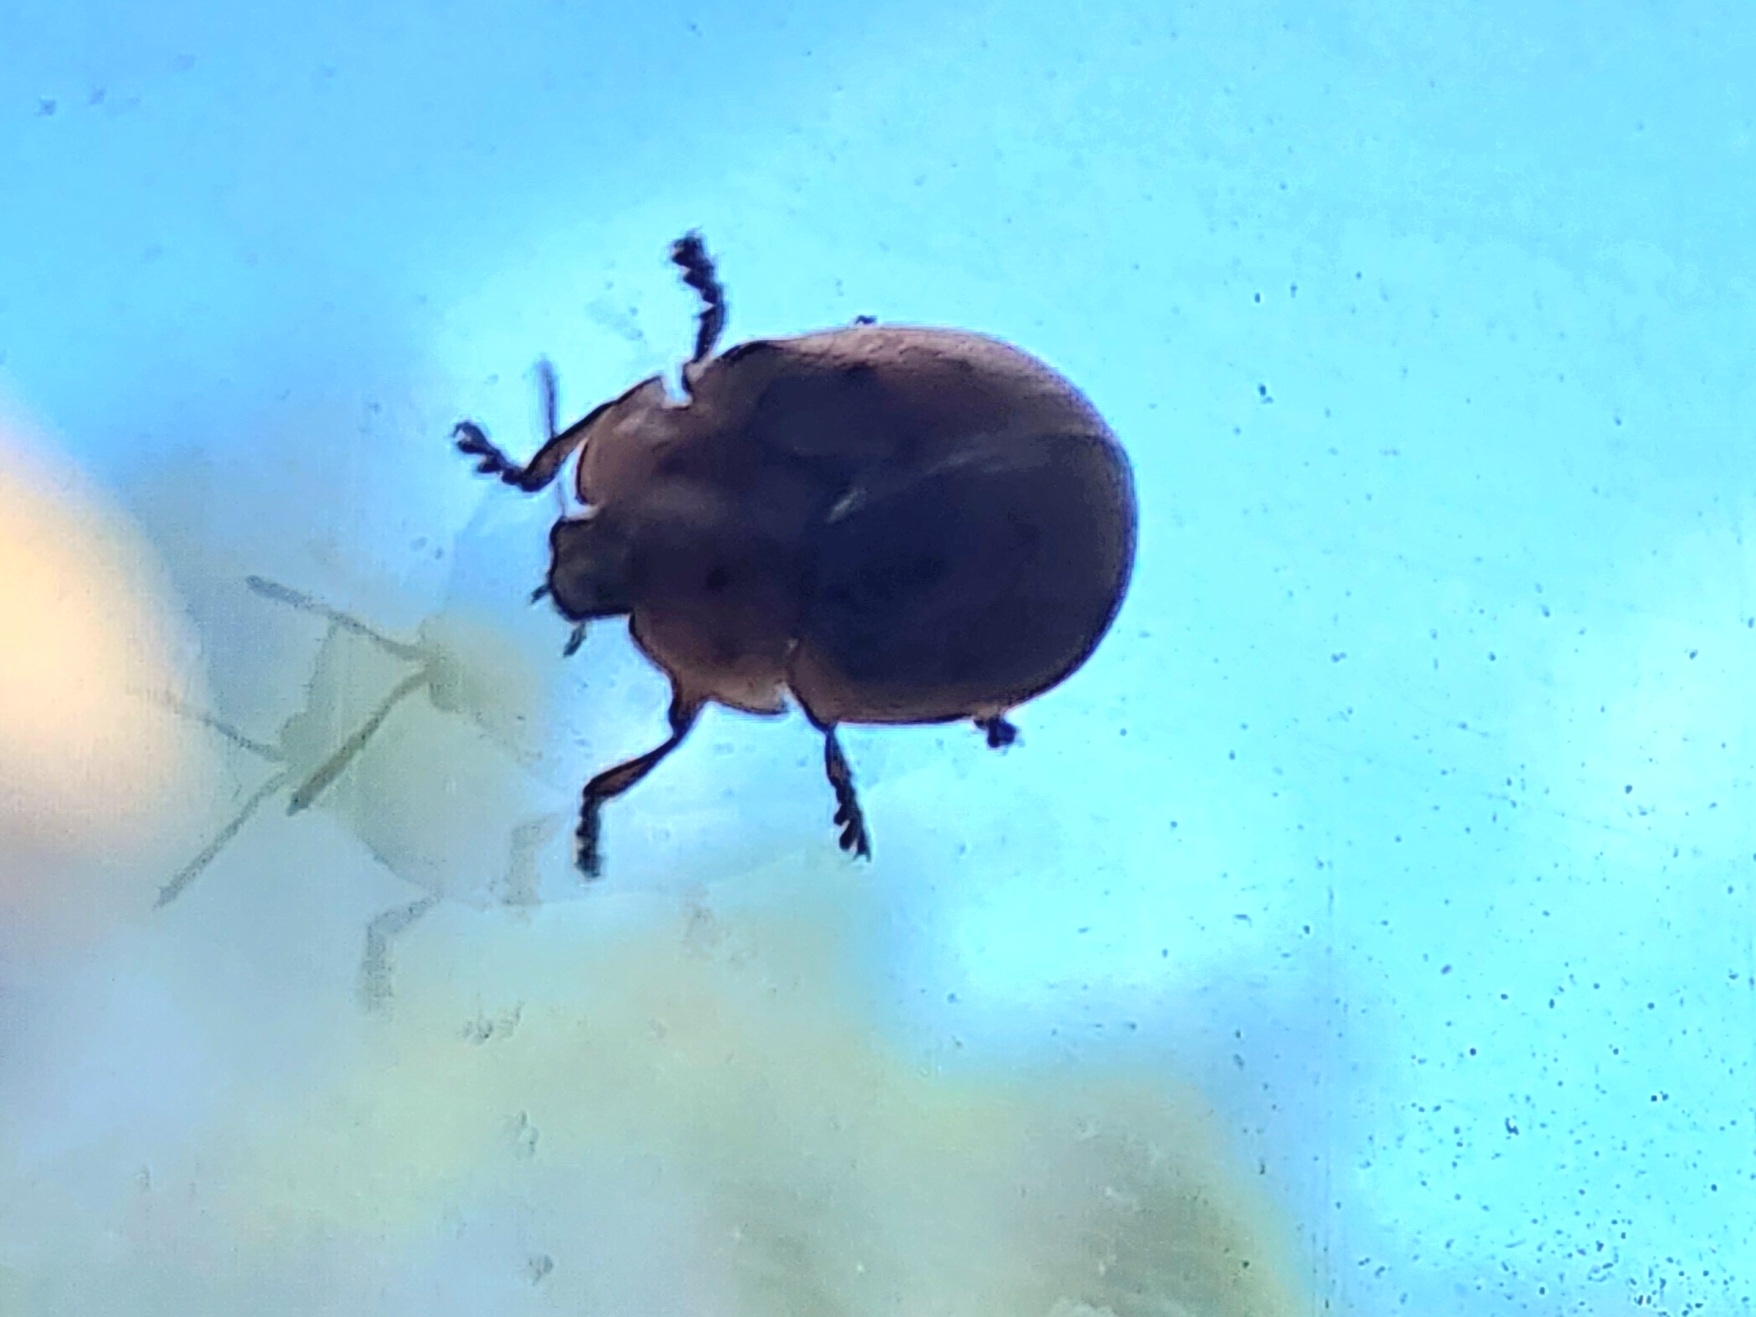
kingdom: Animalia
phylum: Arthropoda
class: Insecta
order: Coleoptera
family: Chrysomelidae
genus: Chelymorpha
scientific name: Chelymorpha cassidea
